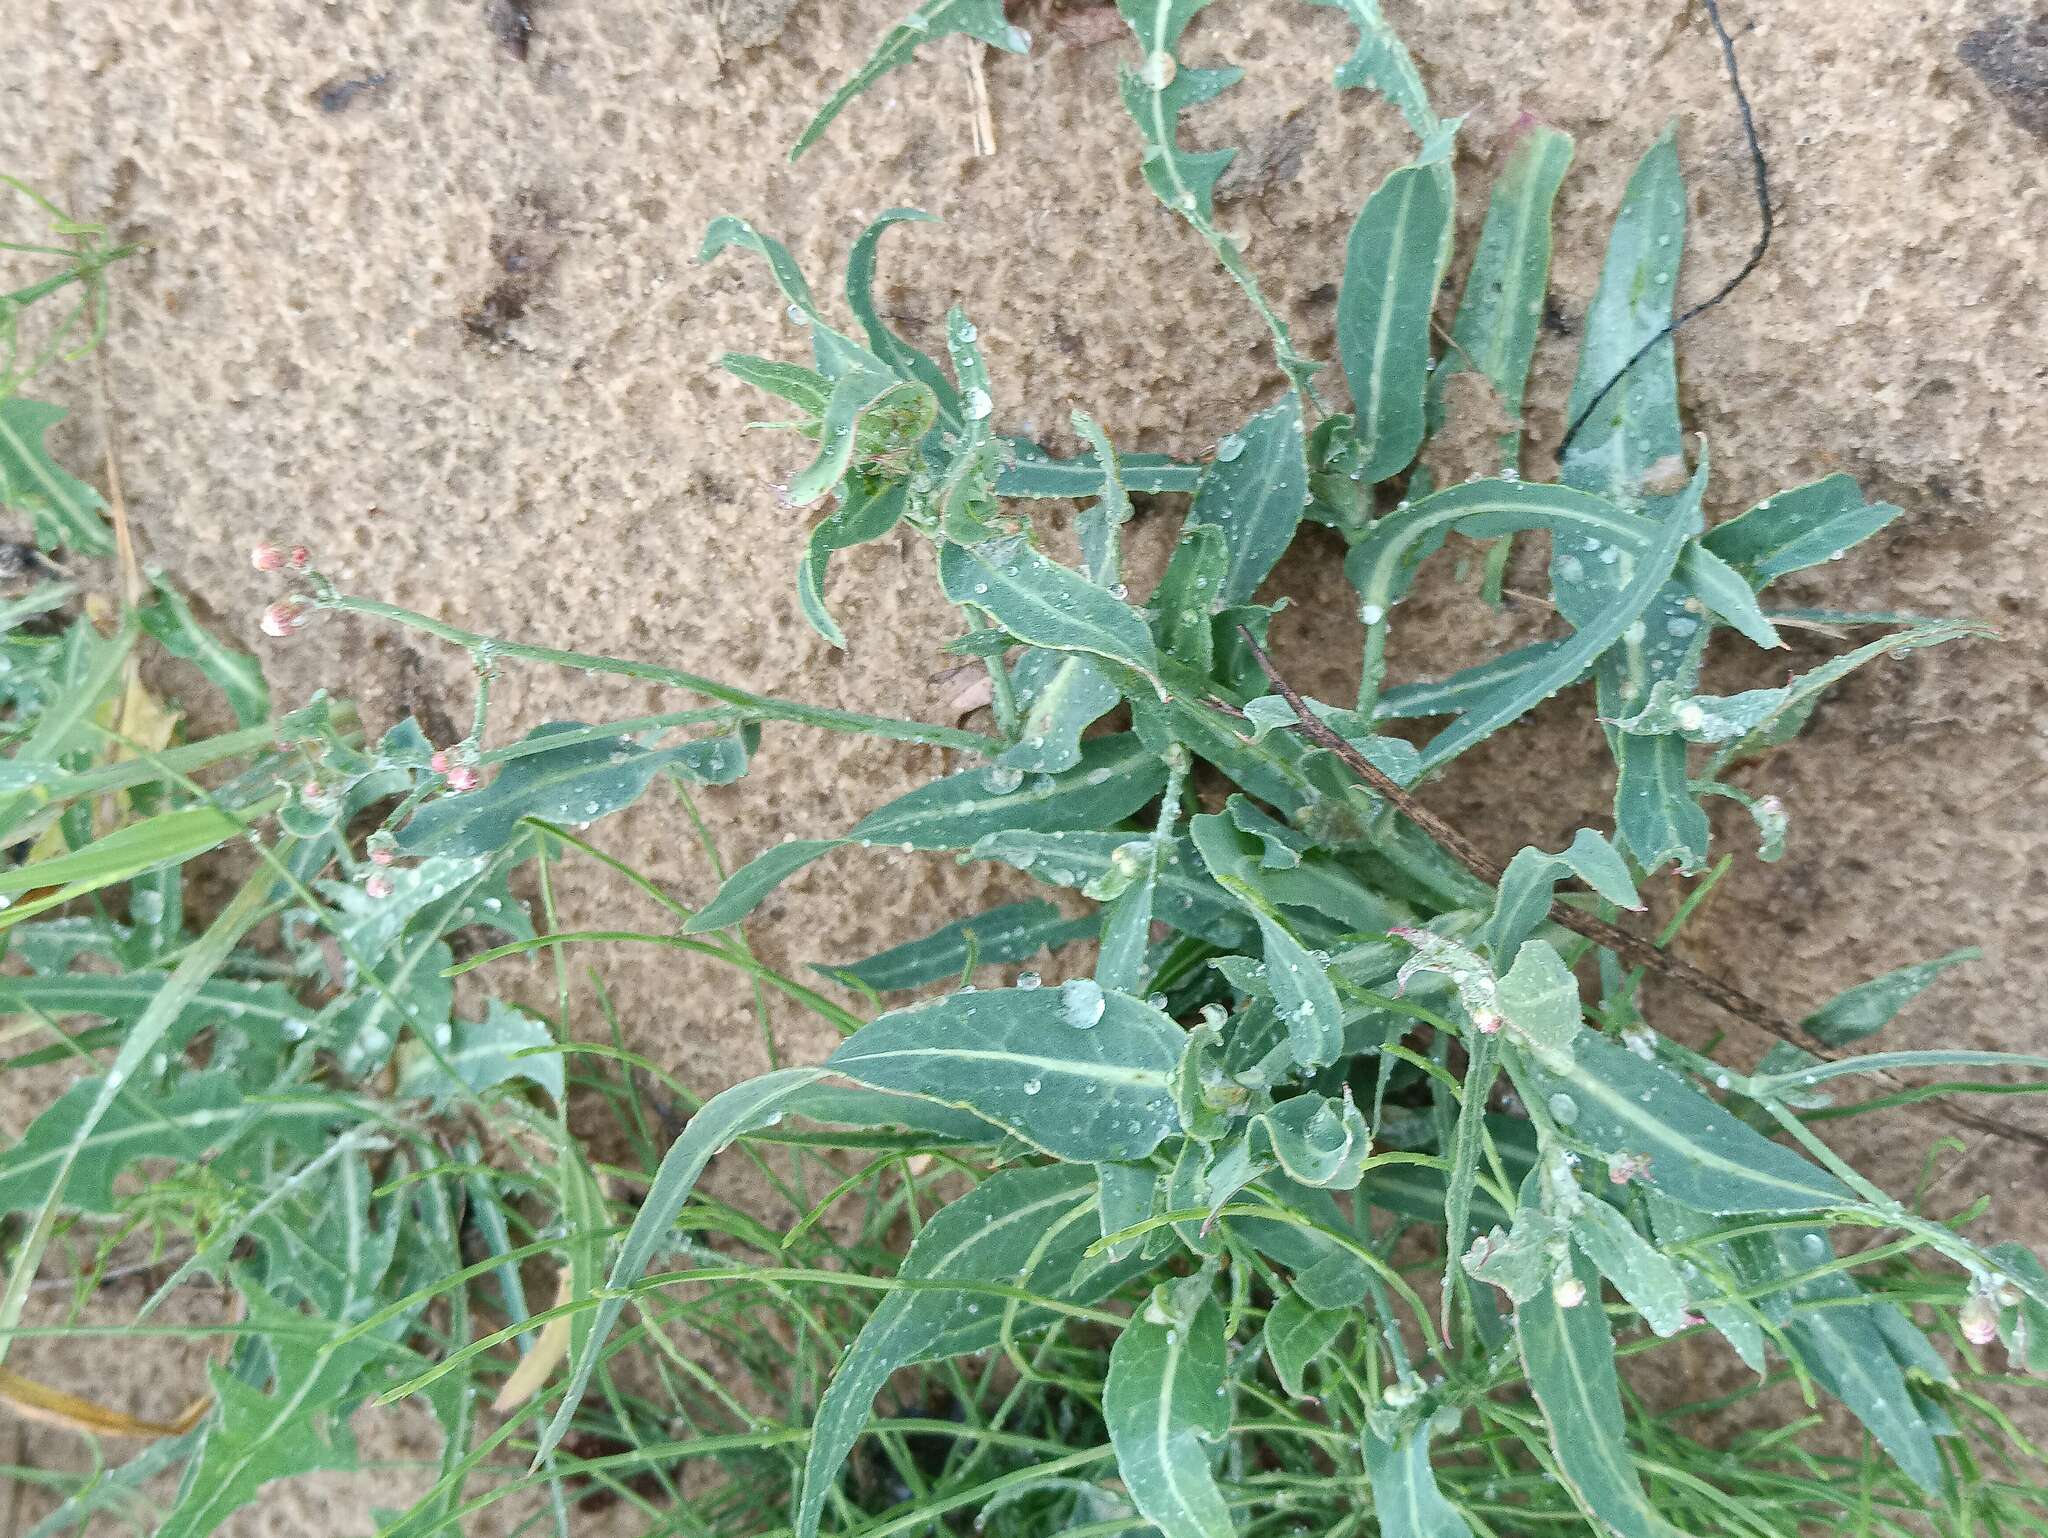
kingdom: Plantae
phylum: Tracheophyta
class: Magnoliopsida
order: Asterales
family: Asteraceae
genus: Lactuca
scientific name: Lactuca tatarica
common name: Blue lettuce
